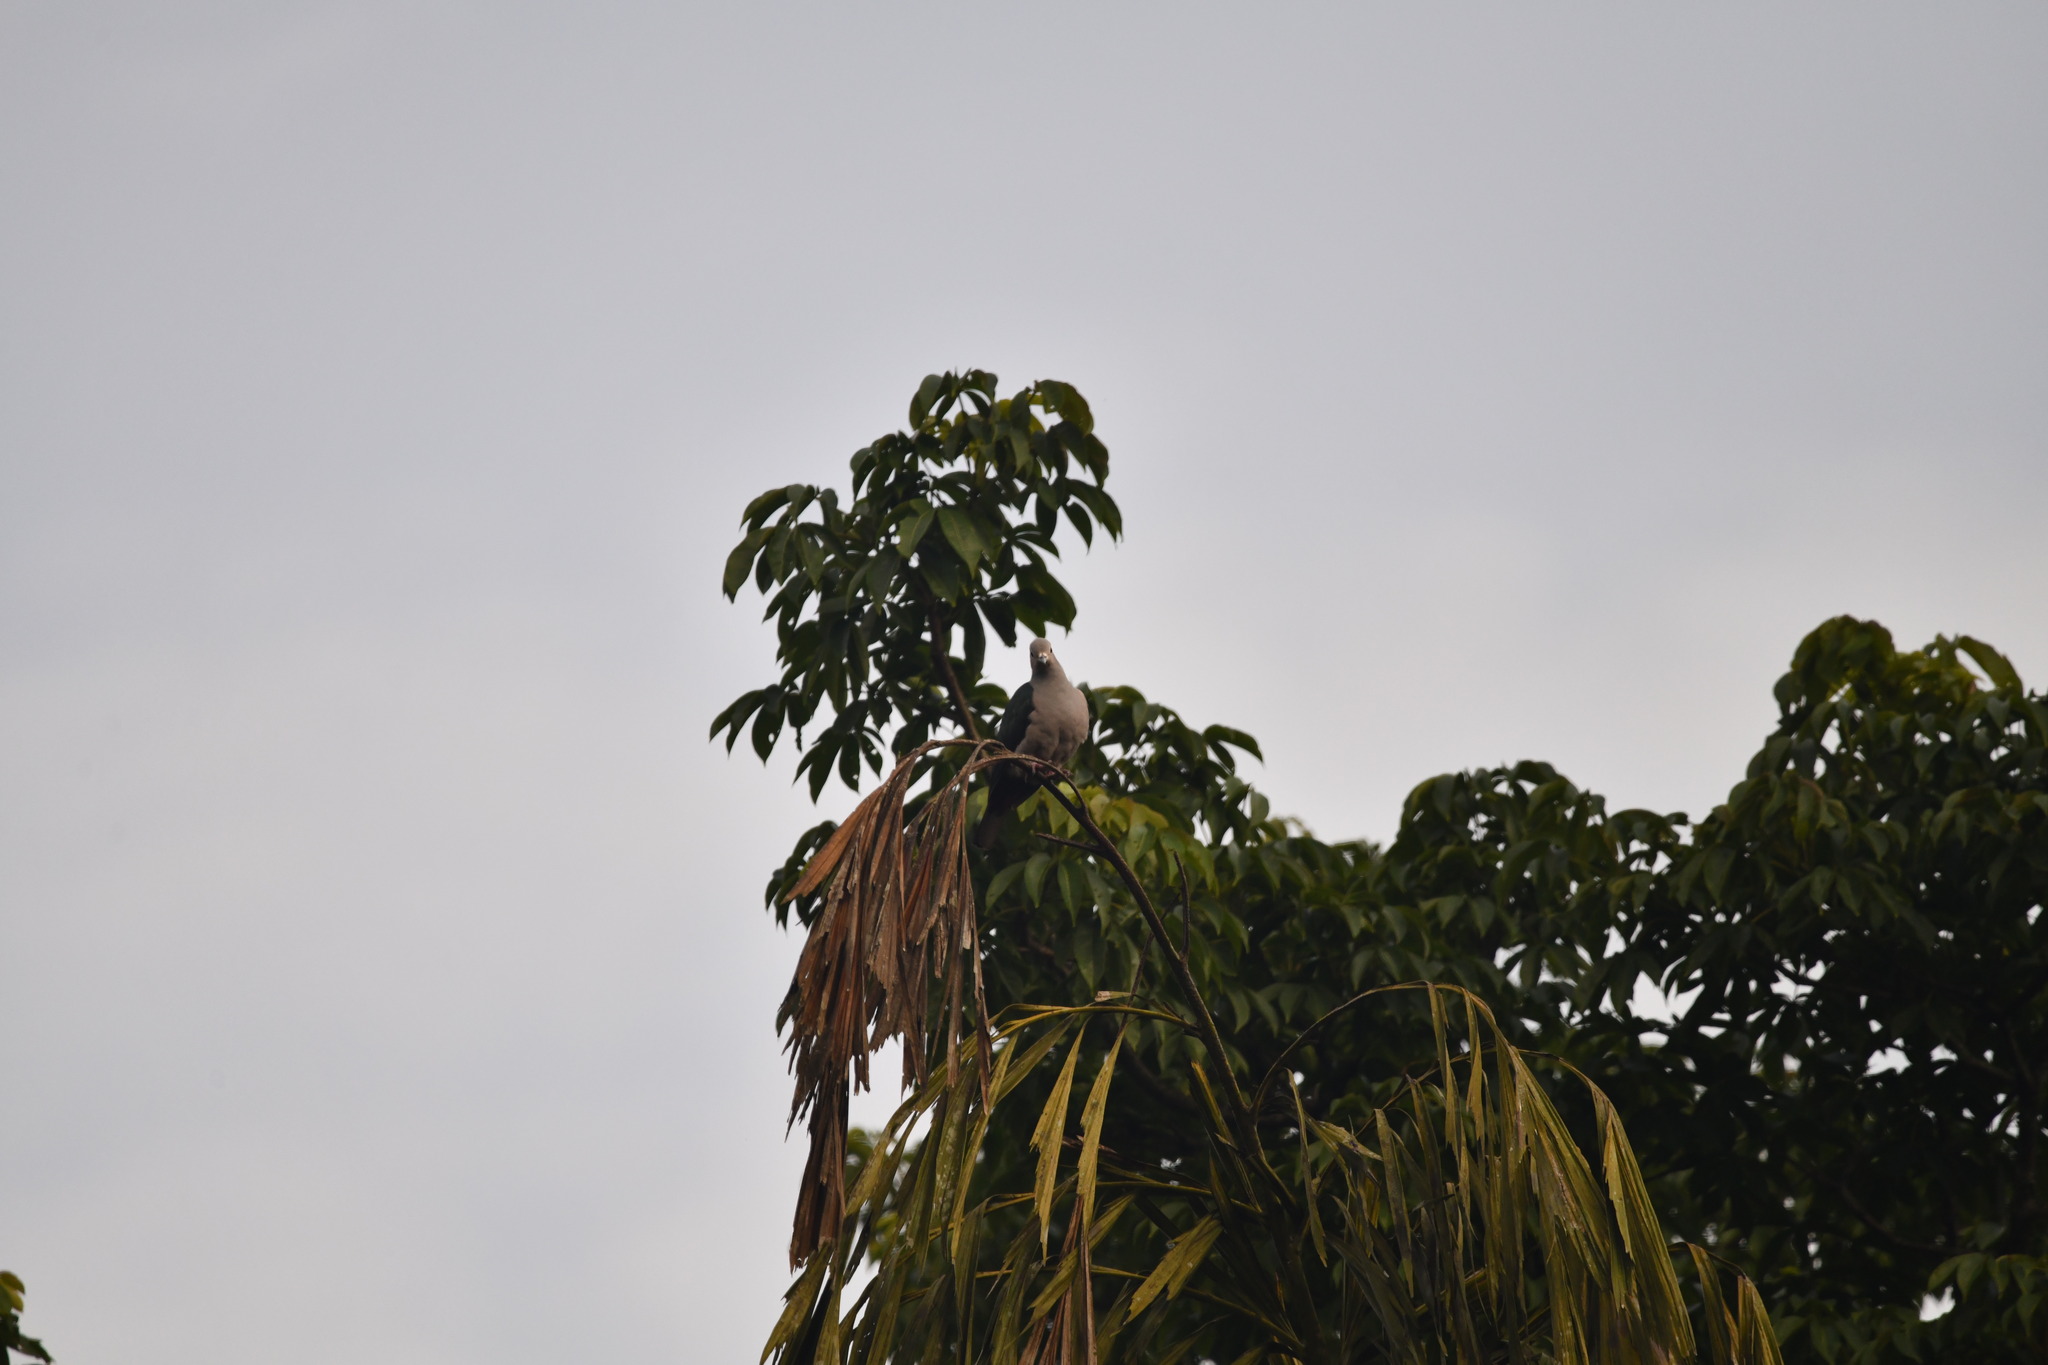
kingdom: Animalia
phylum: Chordata
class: Aves
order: Columbiformes
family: Columbidae
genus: Ducula
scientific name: Ducula aenea
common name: Green imperial pigeon
